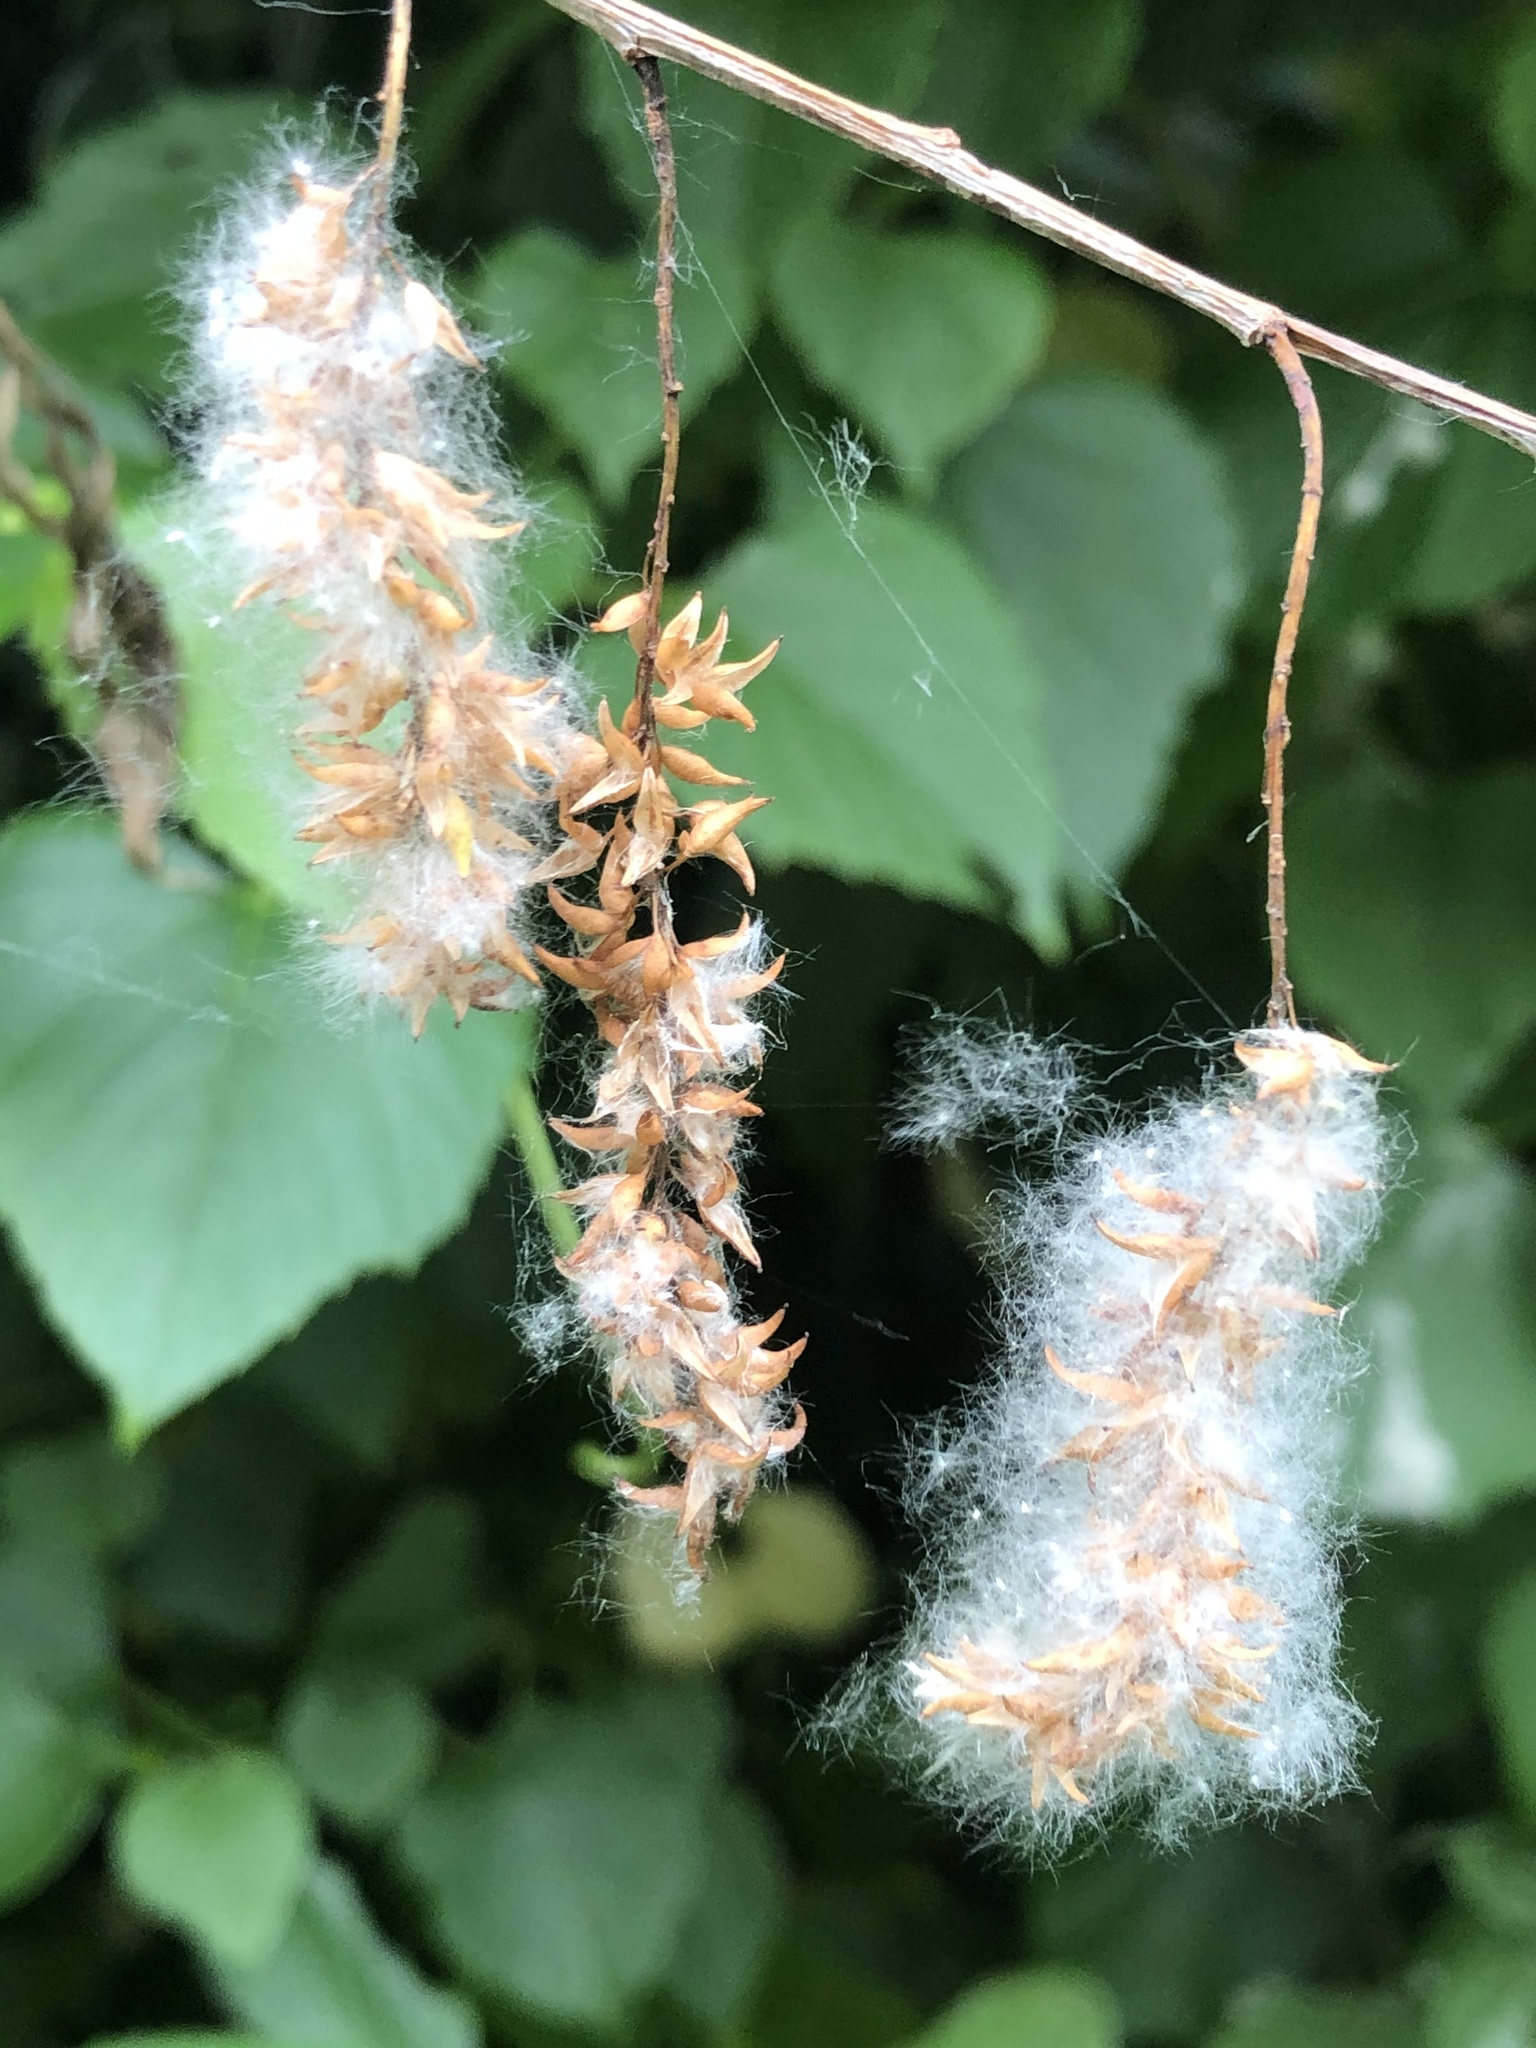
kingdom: Plantae
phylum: Tracheophyta
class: Magnoliopsida
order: Malpighiales
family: Salicaceae
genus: Salix
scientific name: Salix nigra
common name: Black willow
